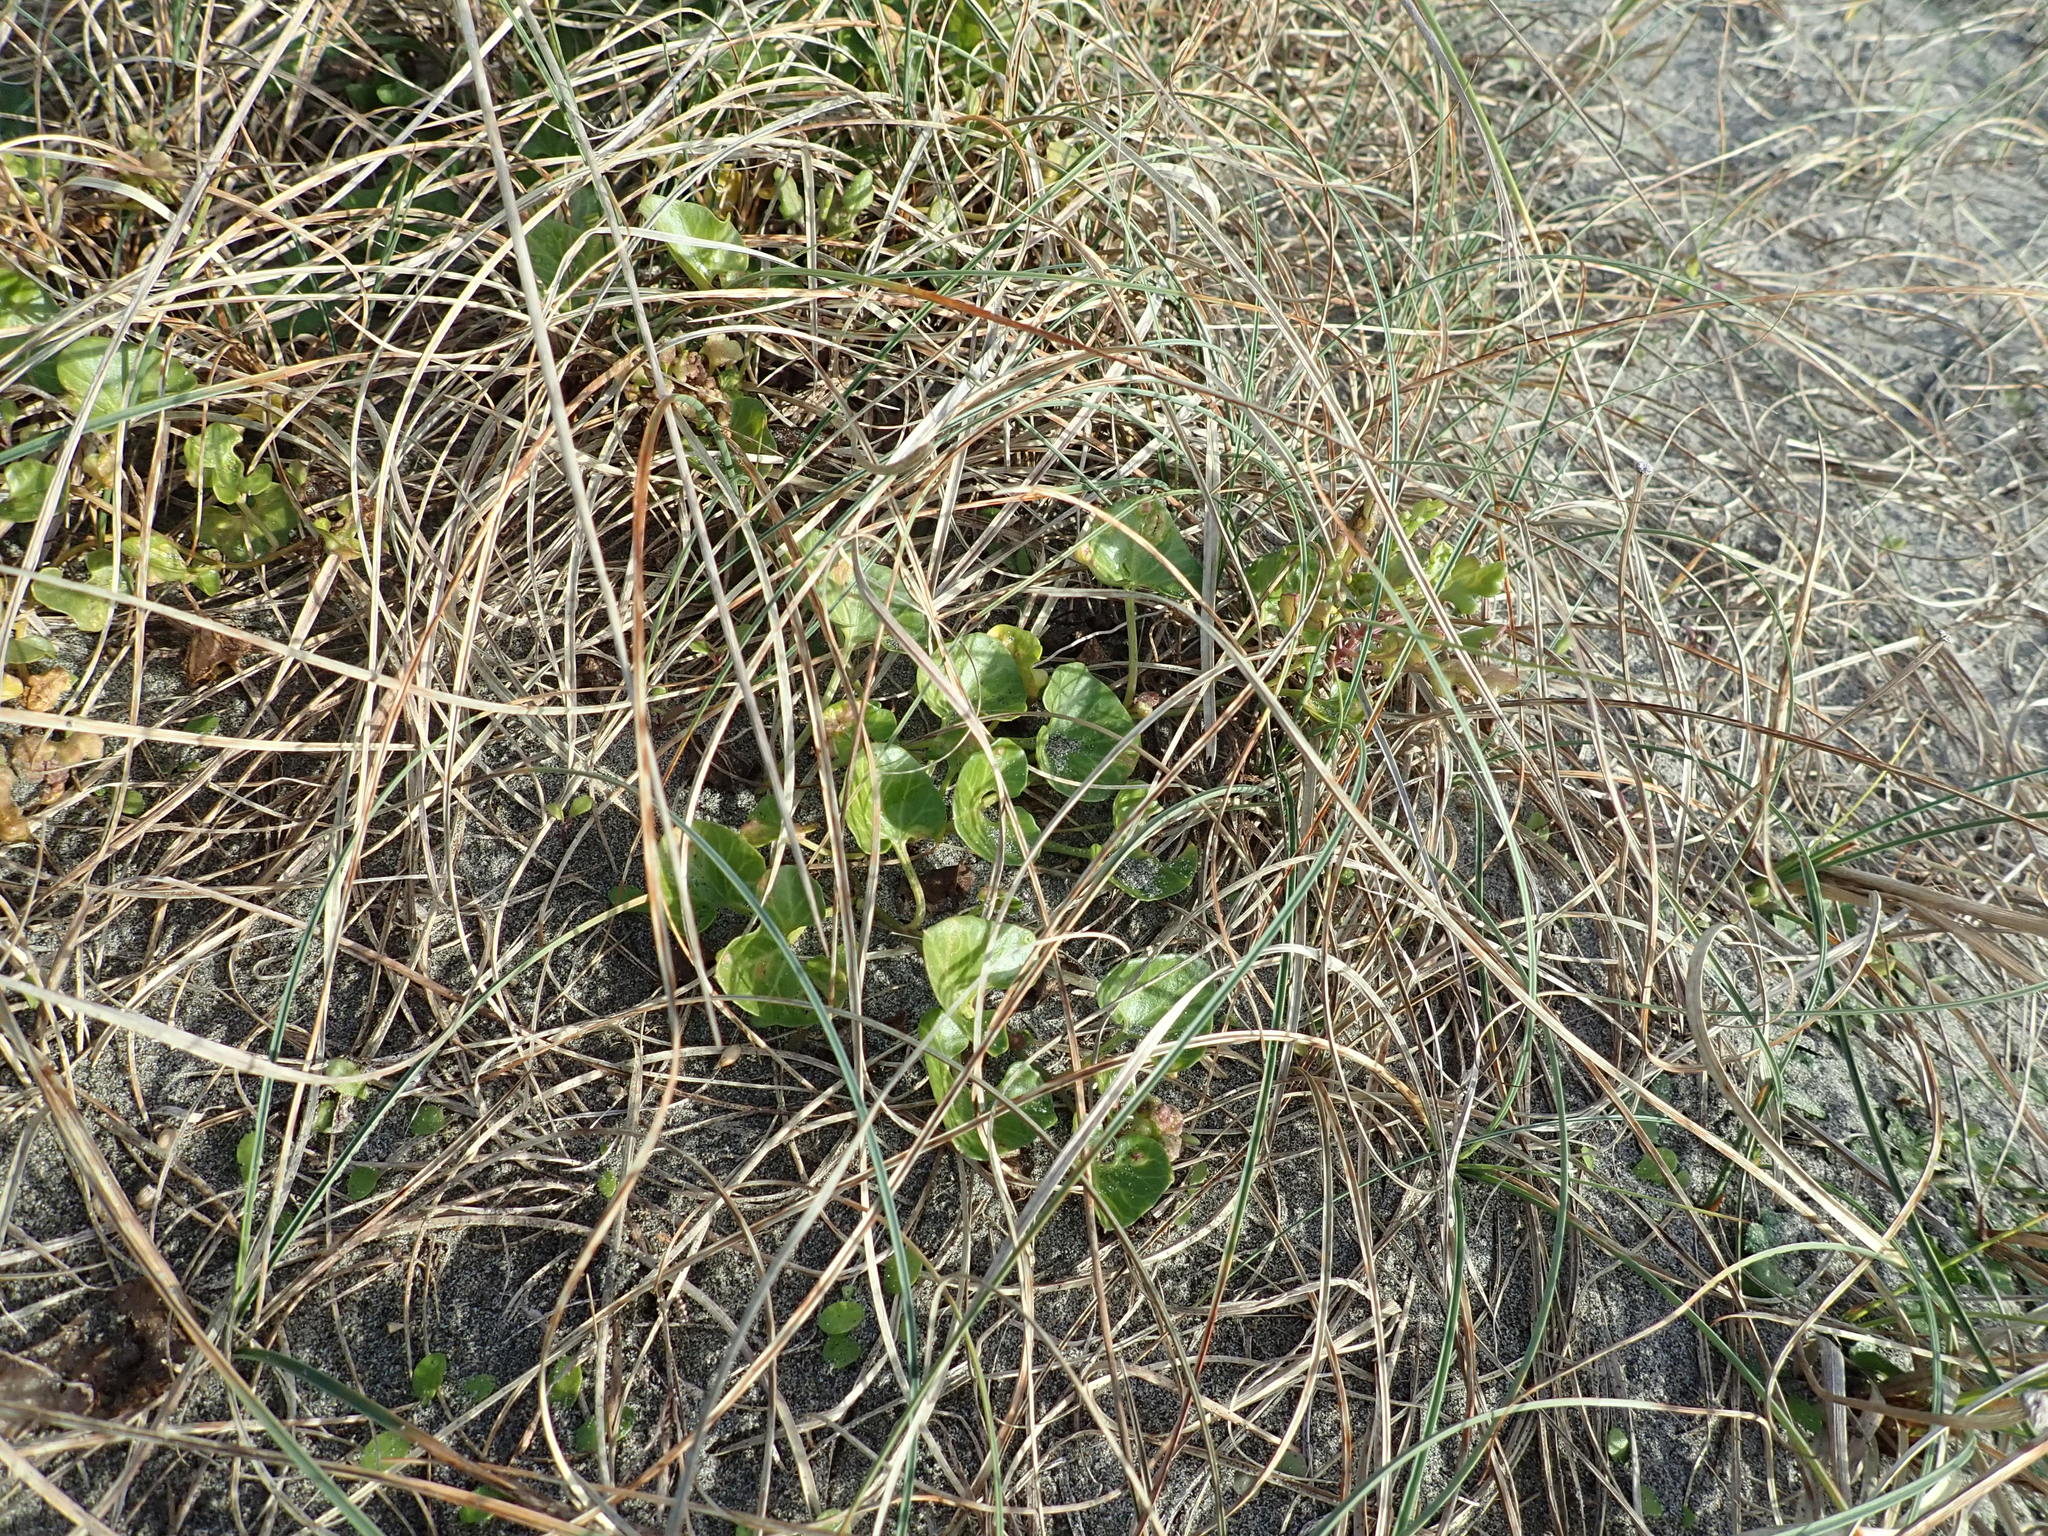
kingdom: Plantae
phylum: Tracheophyta
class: Magnoliopsida
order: Solanales
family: Convolvulaceae
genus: Calystegia
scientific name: Calystegia soldanella
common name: Sea bindweed
